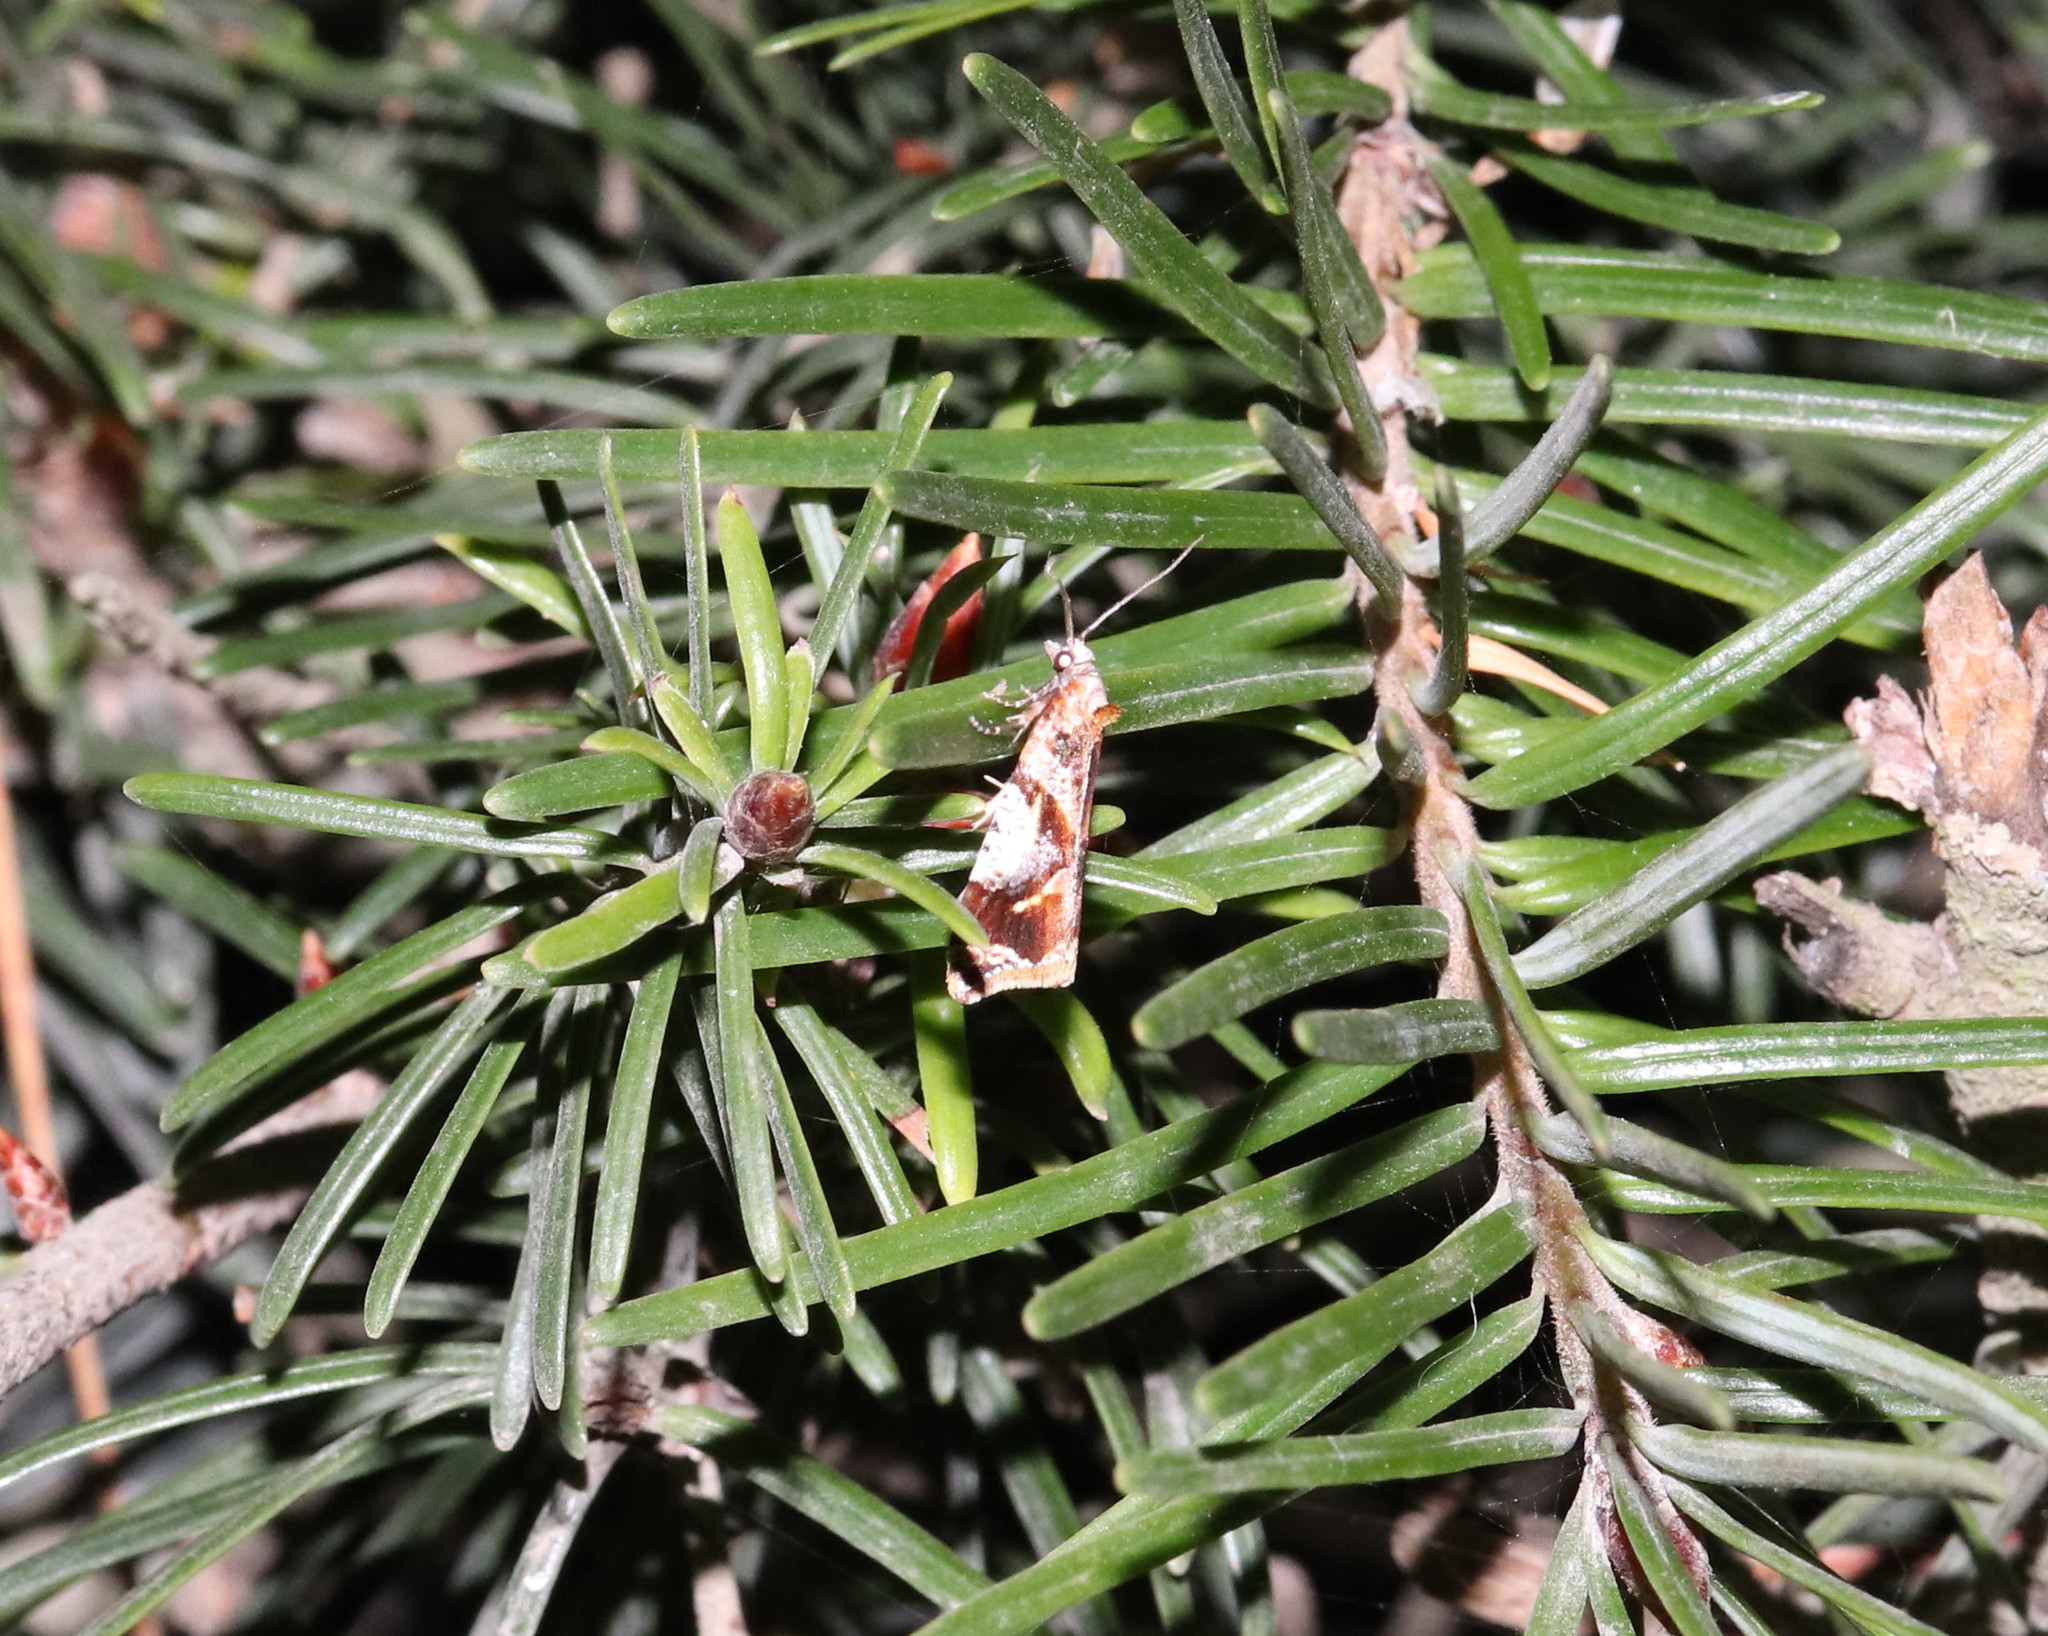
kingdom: Animalia
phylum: Arthropoda
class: Insecta
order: Lepidoptera
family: Tortricidae
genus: Pyrgotis
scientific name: Pyrgotis plagiatana
